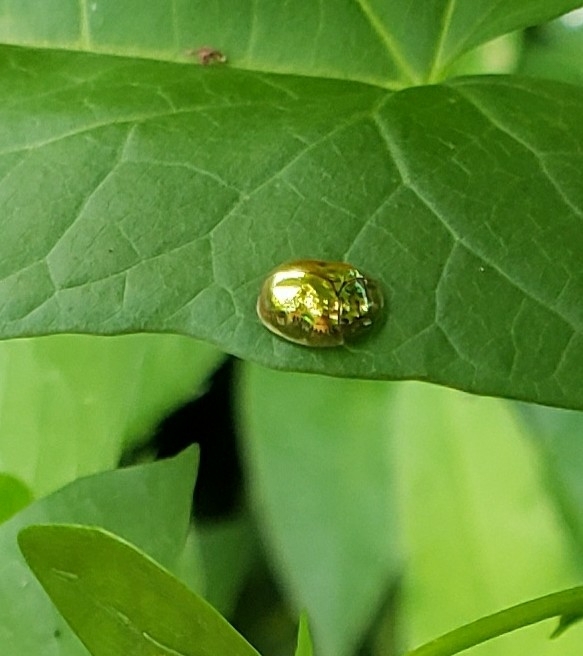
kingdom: Animalia
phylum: Arthropoda
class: Insecta
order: Coleoptera
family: Chrysomelidae
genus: Charidotella
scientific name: Charidotella sexpunctata
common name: Golden tortoise beetle
